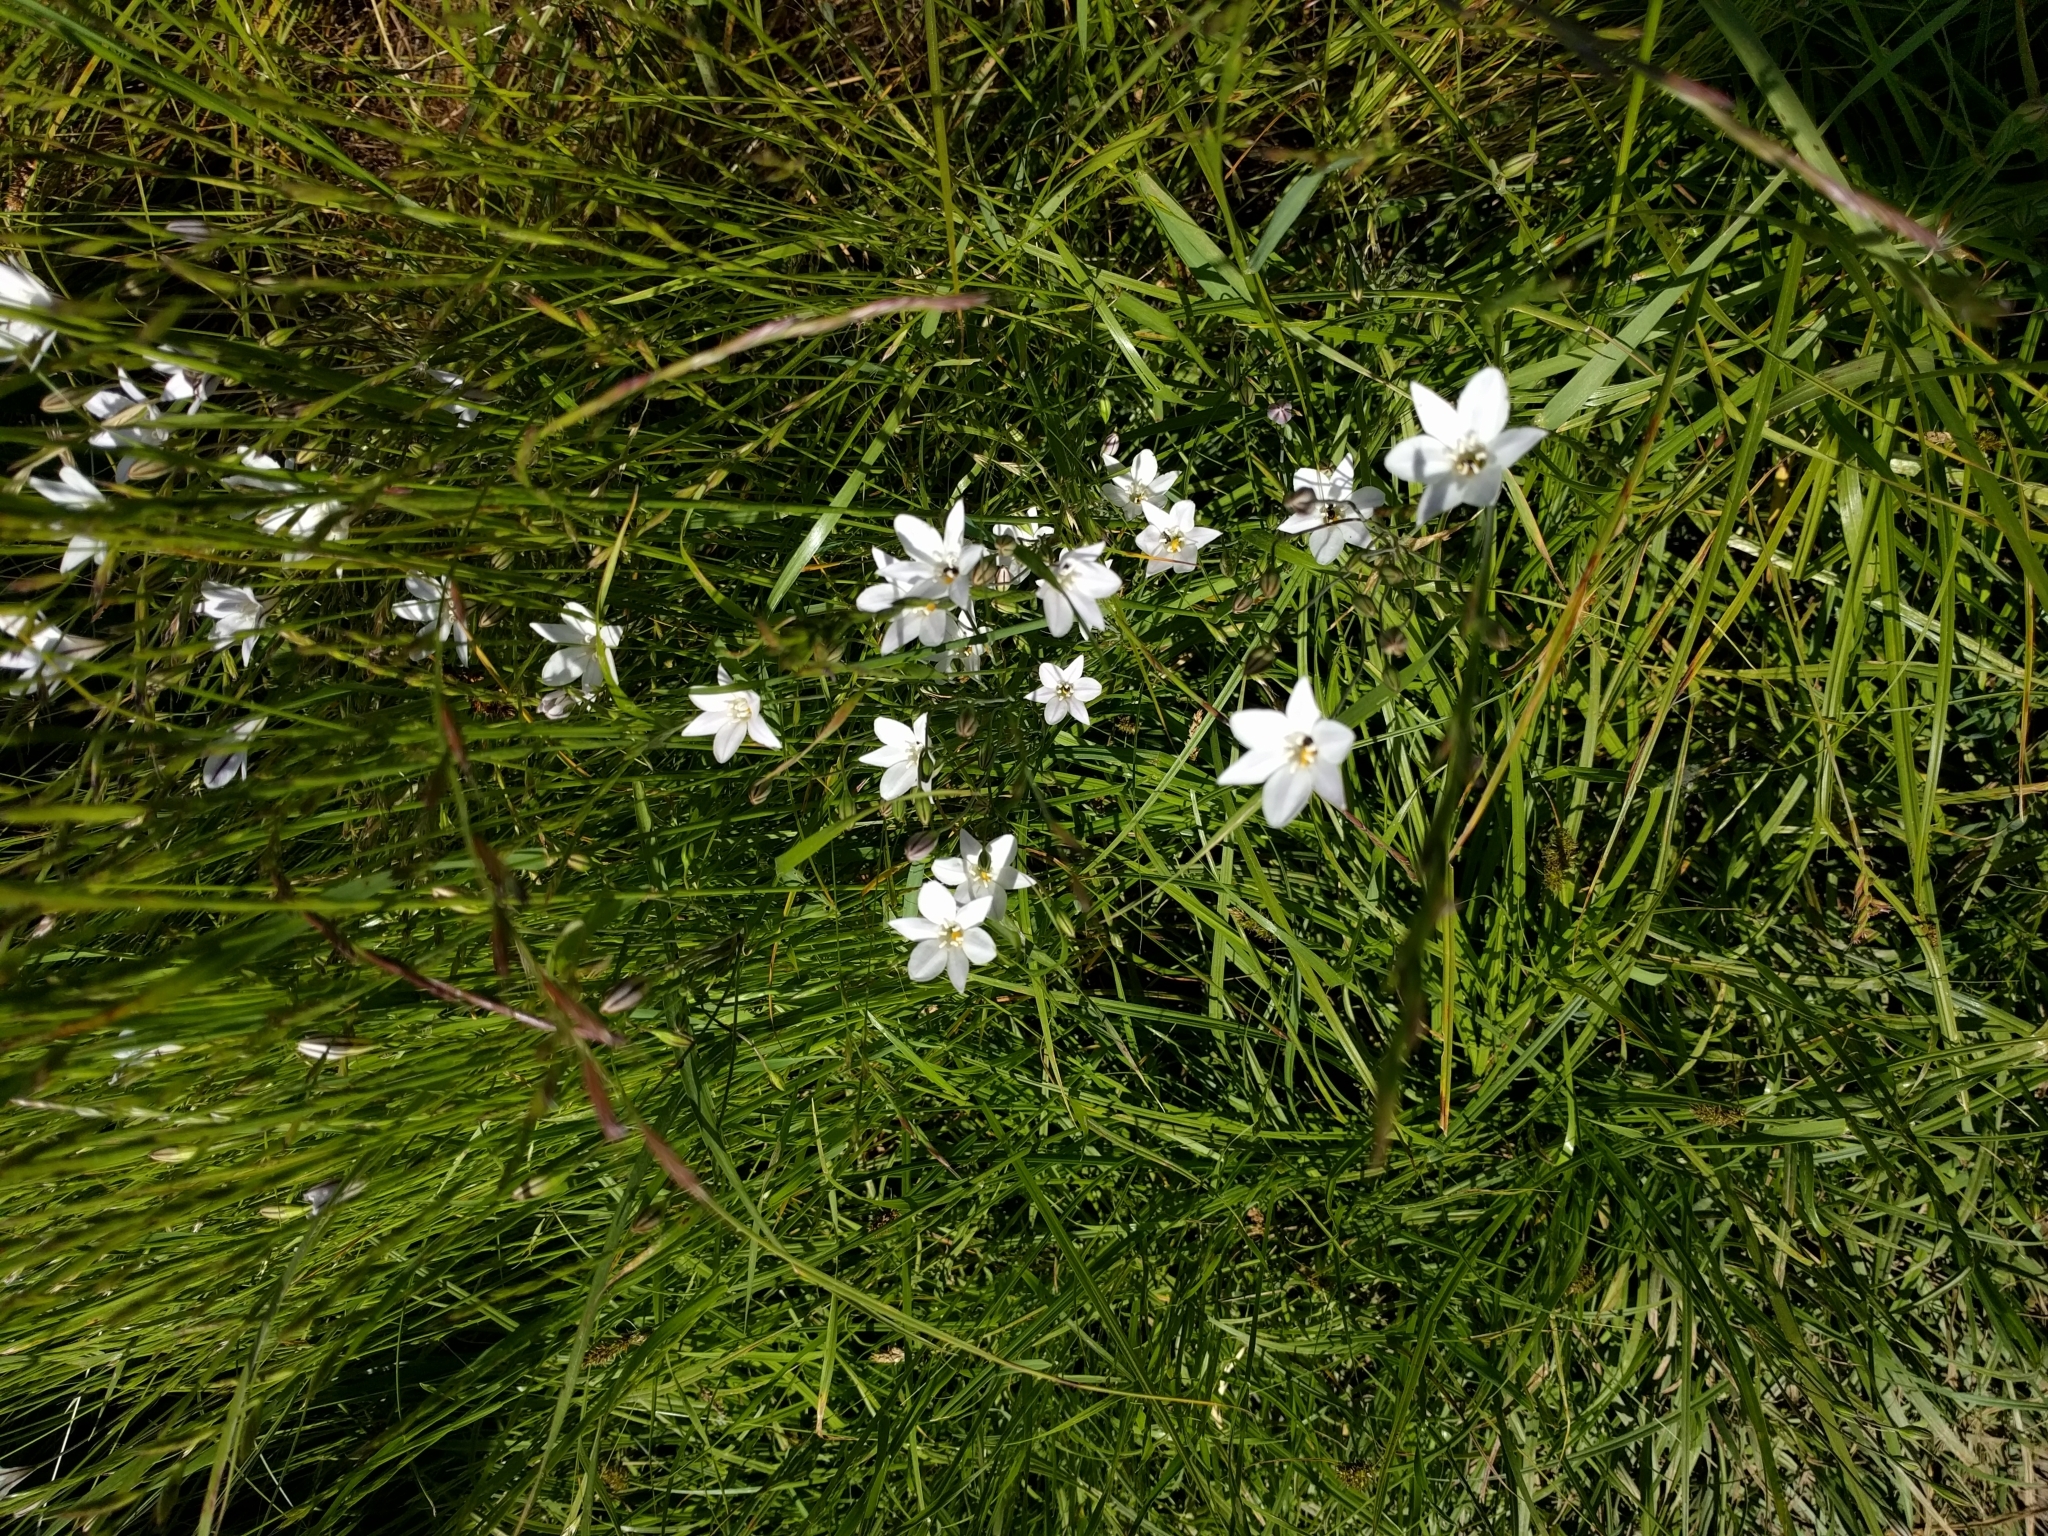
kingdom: Plantae
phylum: Tracheophyta
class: Liliopsida
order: Asparagales
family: Asparagaceae
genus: Triteleia
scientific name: Triteleia peduncularis
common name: Long-ray brodiaea
